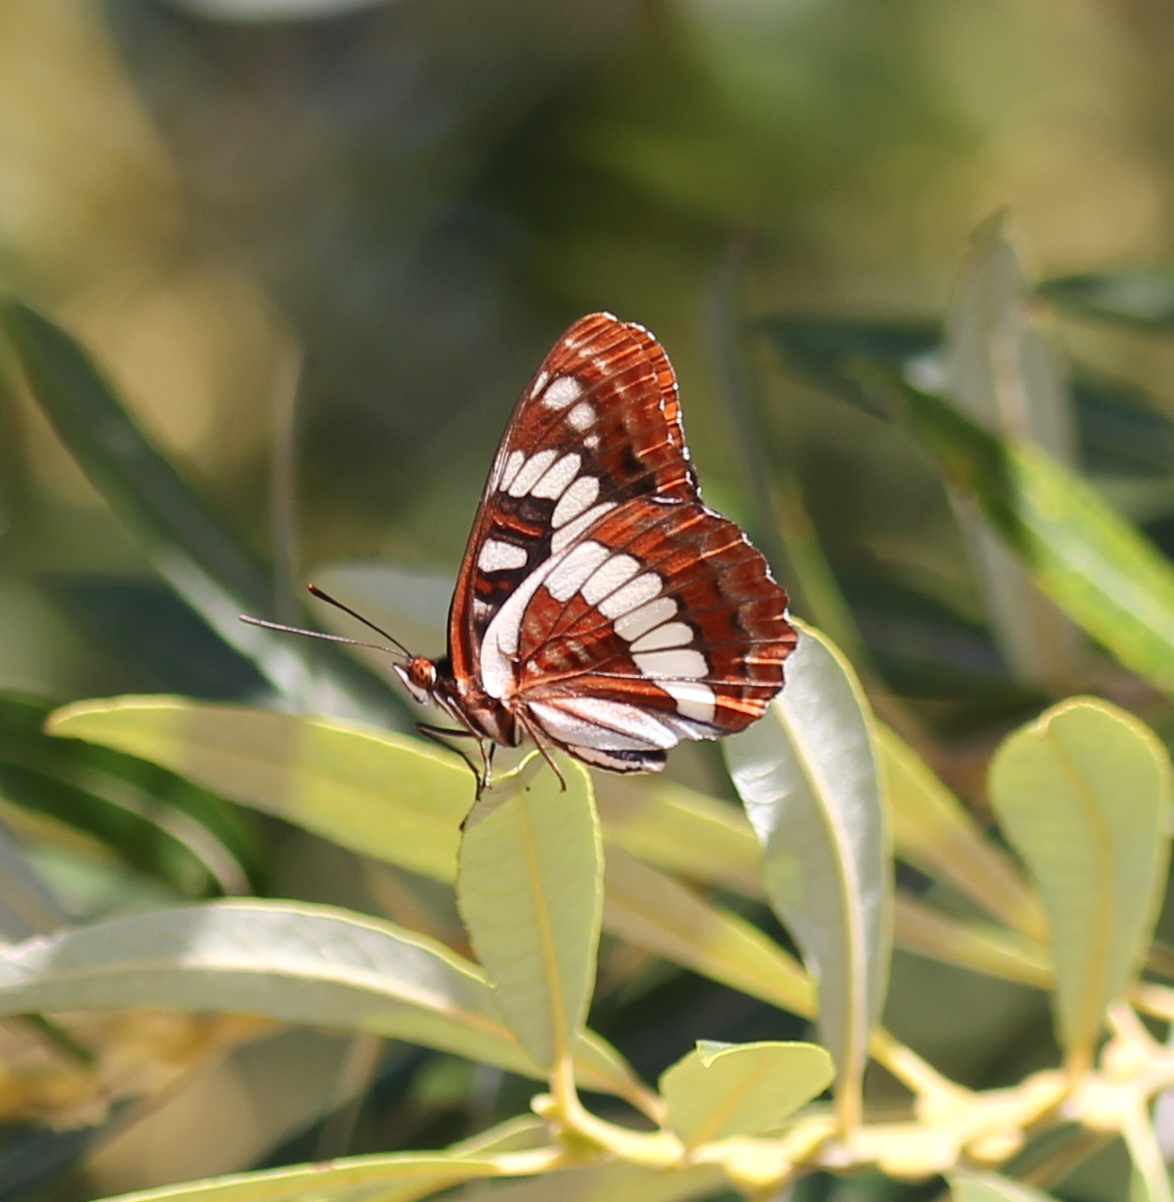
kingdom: Animalia
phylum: Arthropoda
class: Insecta
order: Lepidoptera
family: Nymphalidae
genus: Limenitis
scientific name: Limenitis lorquini
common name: Lorquin's admiral
